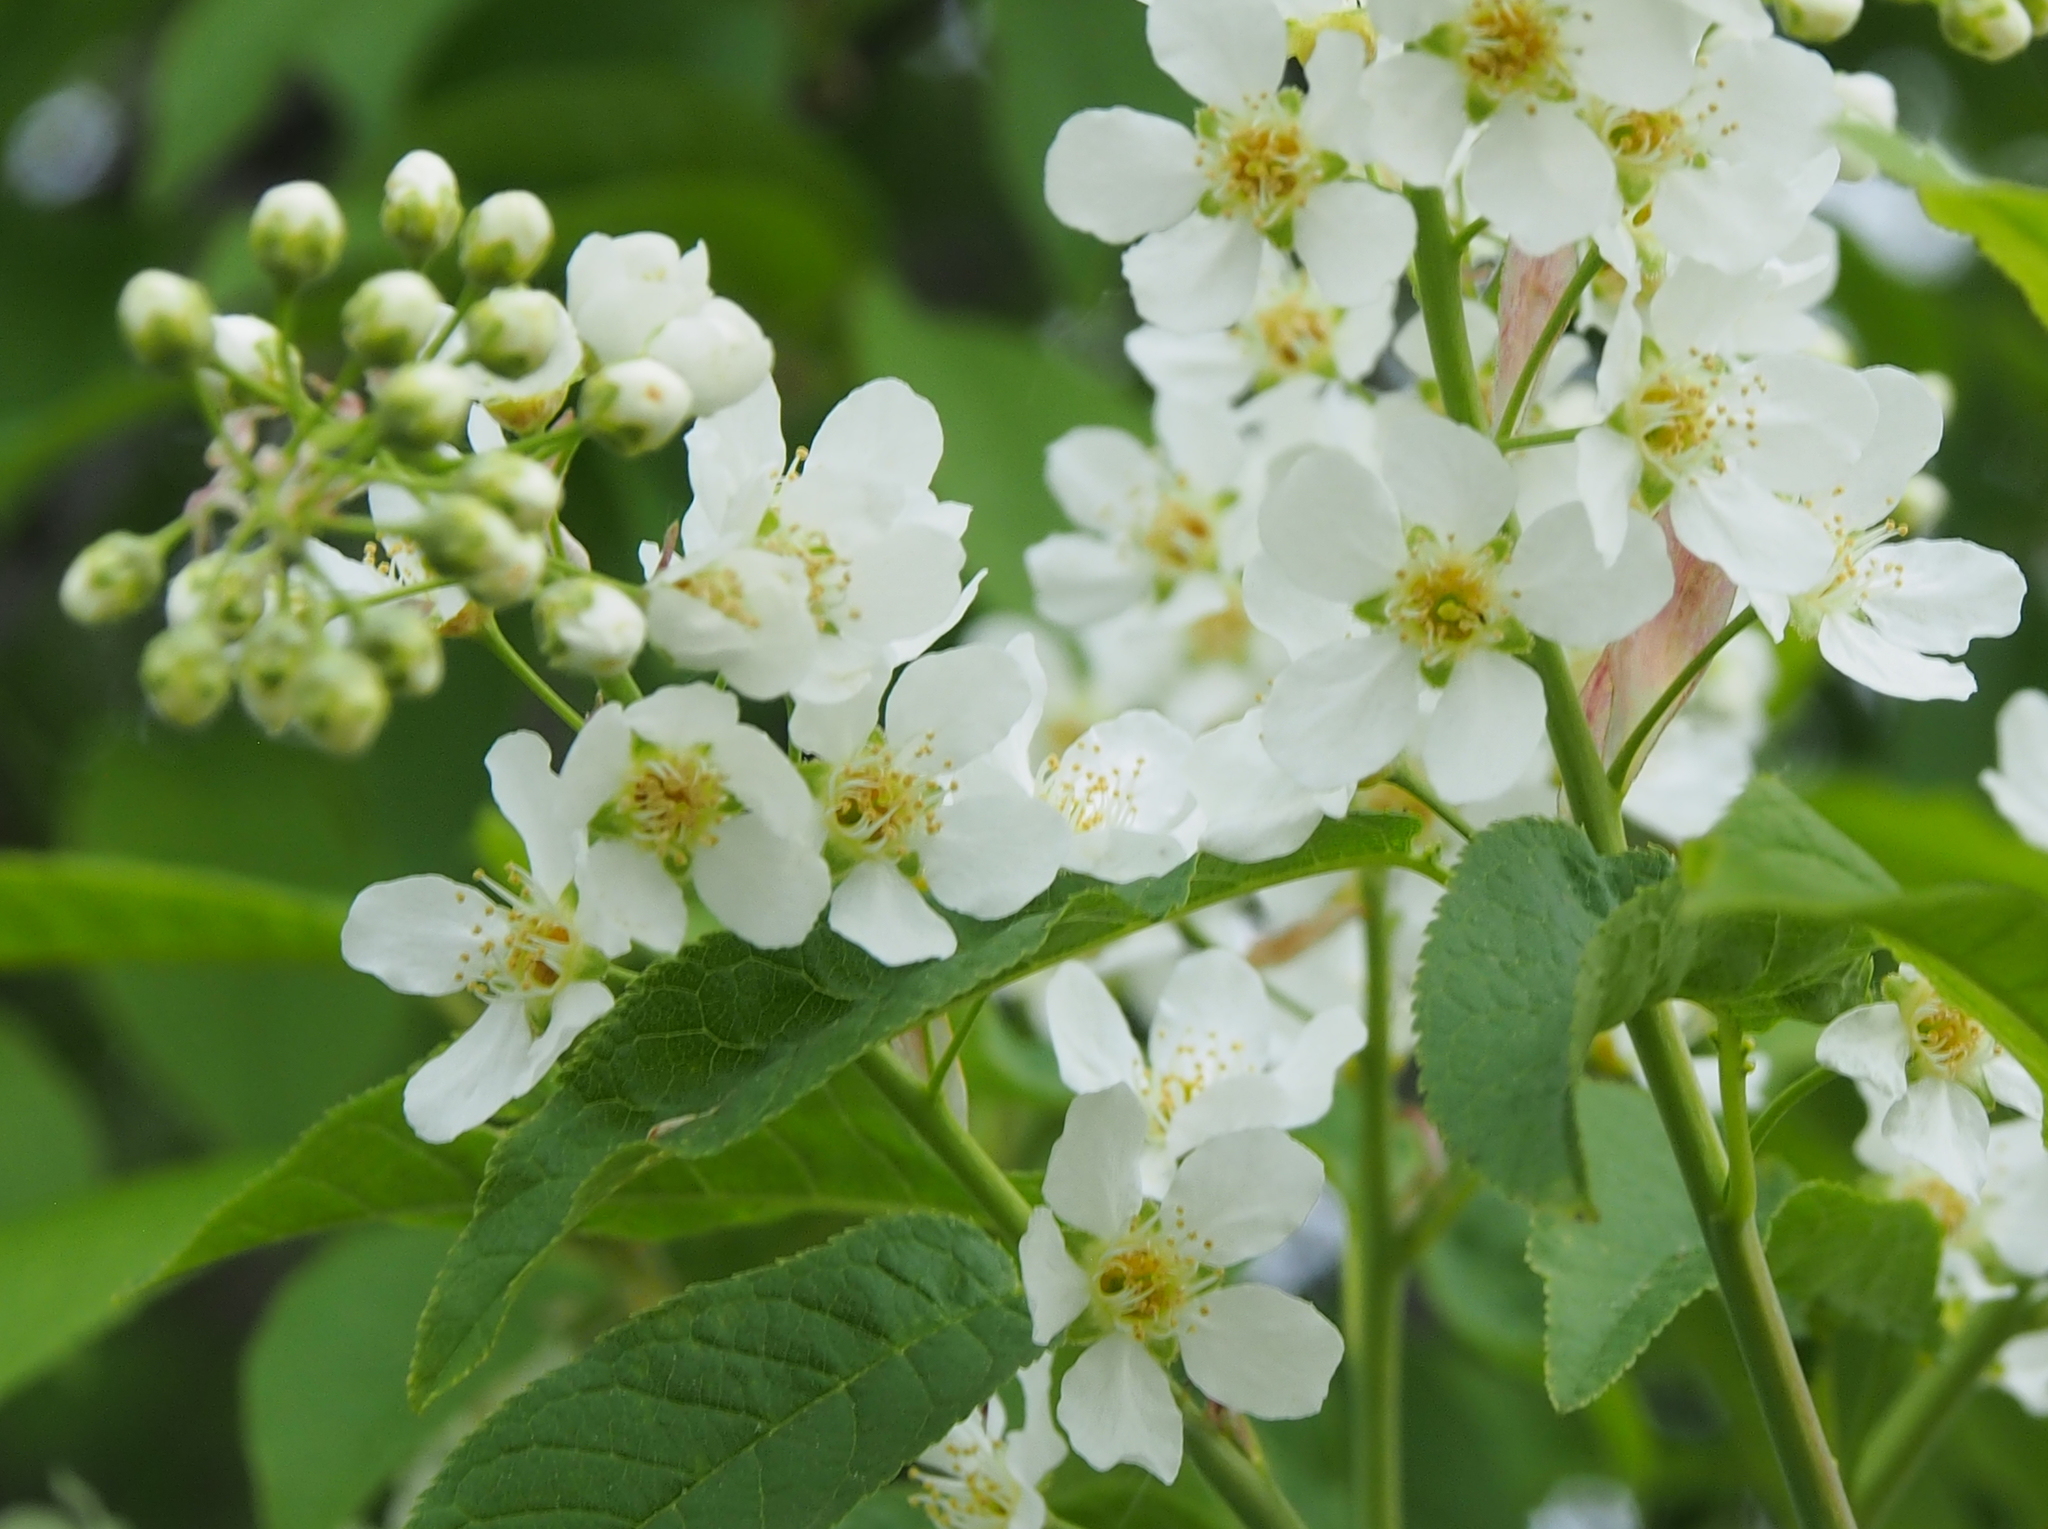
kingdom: Plantae
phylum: Tracheophyta
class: Magnoliopsida
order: Rosales
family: Rosaceae
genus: Prunus
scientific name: Prunus padus
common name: Bird cherry
